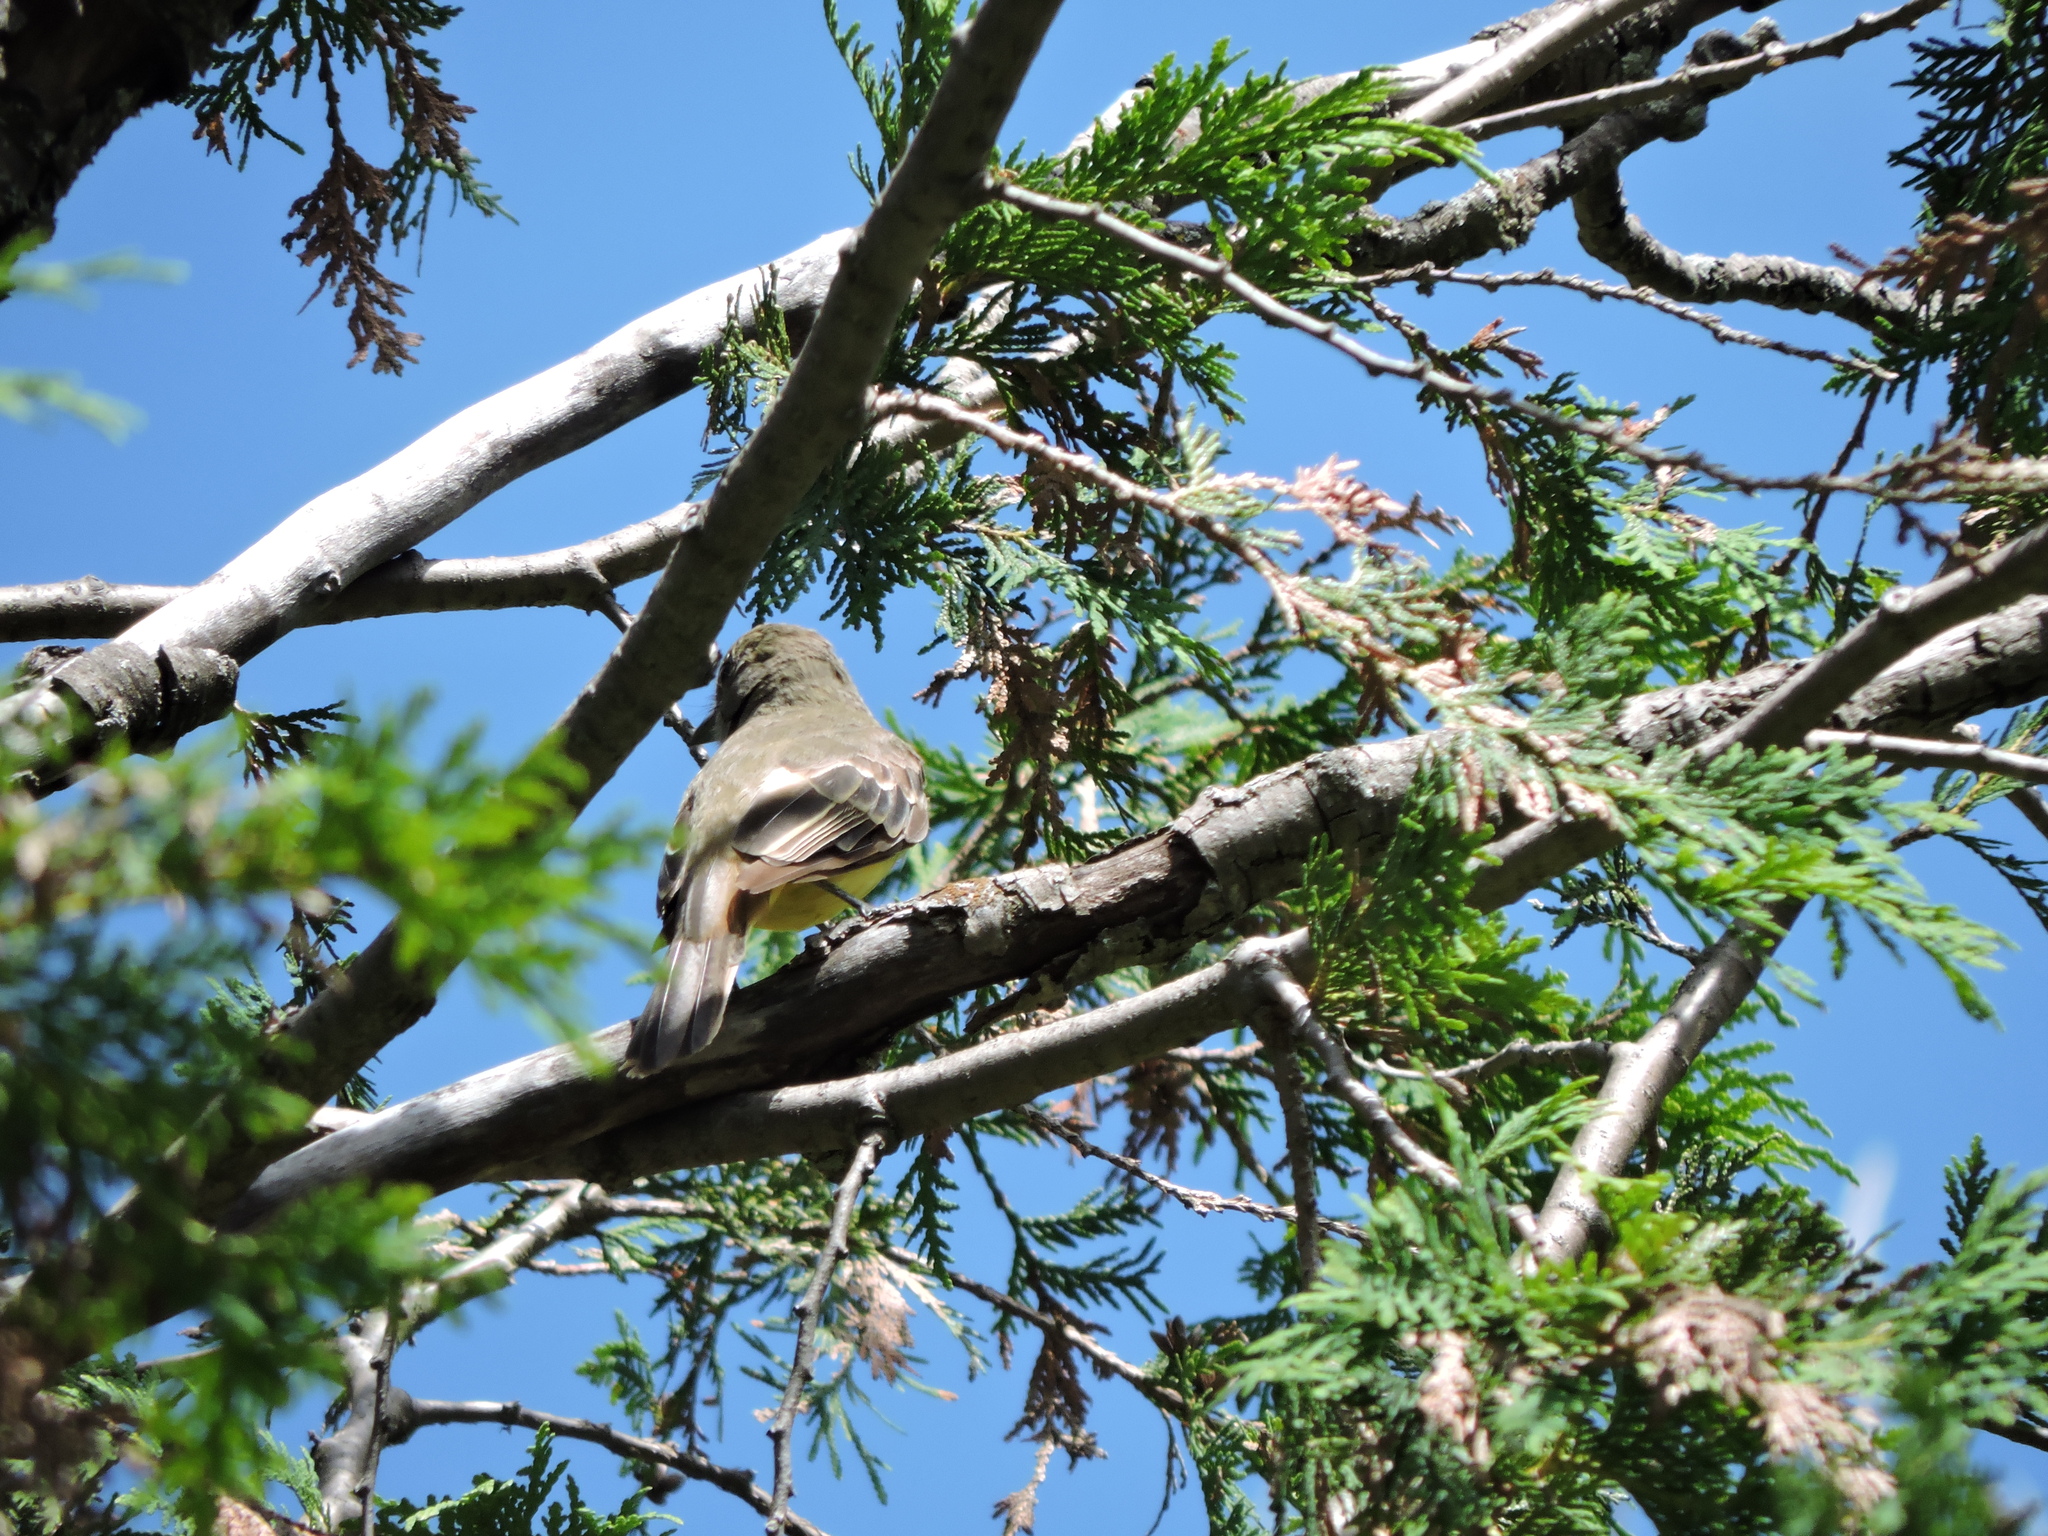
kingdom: Animalia
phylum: Chordata
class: Aves
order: Passeriformes
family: Tyrannidae
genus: Myiarchus
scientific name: Myiarchus crinitus
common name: Great crested flycatcher
